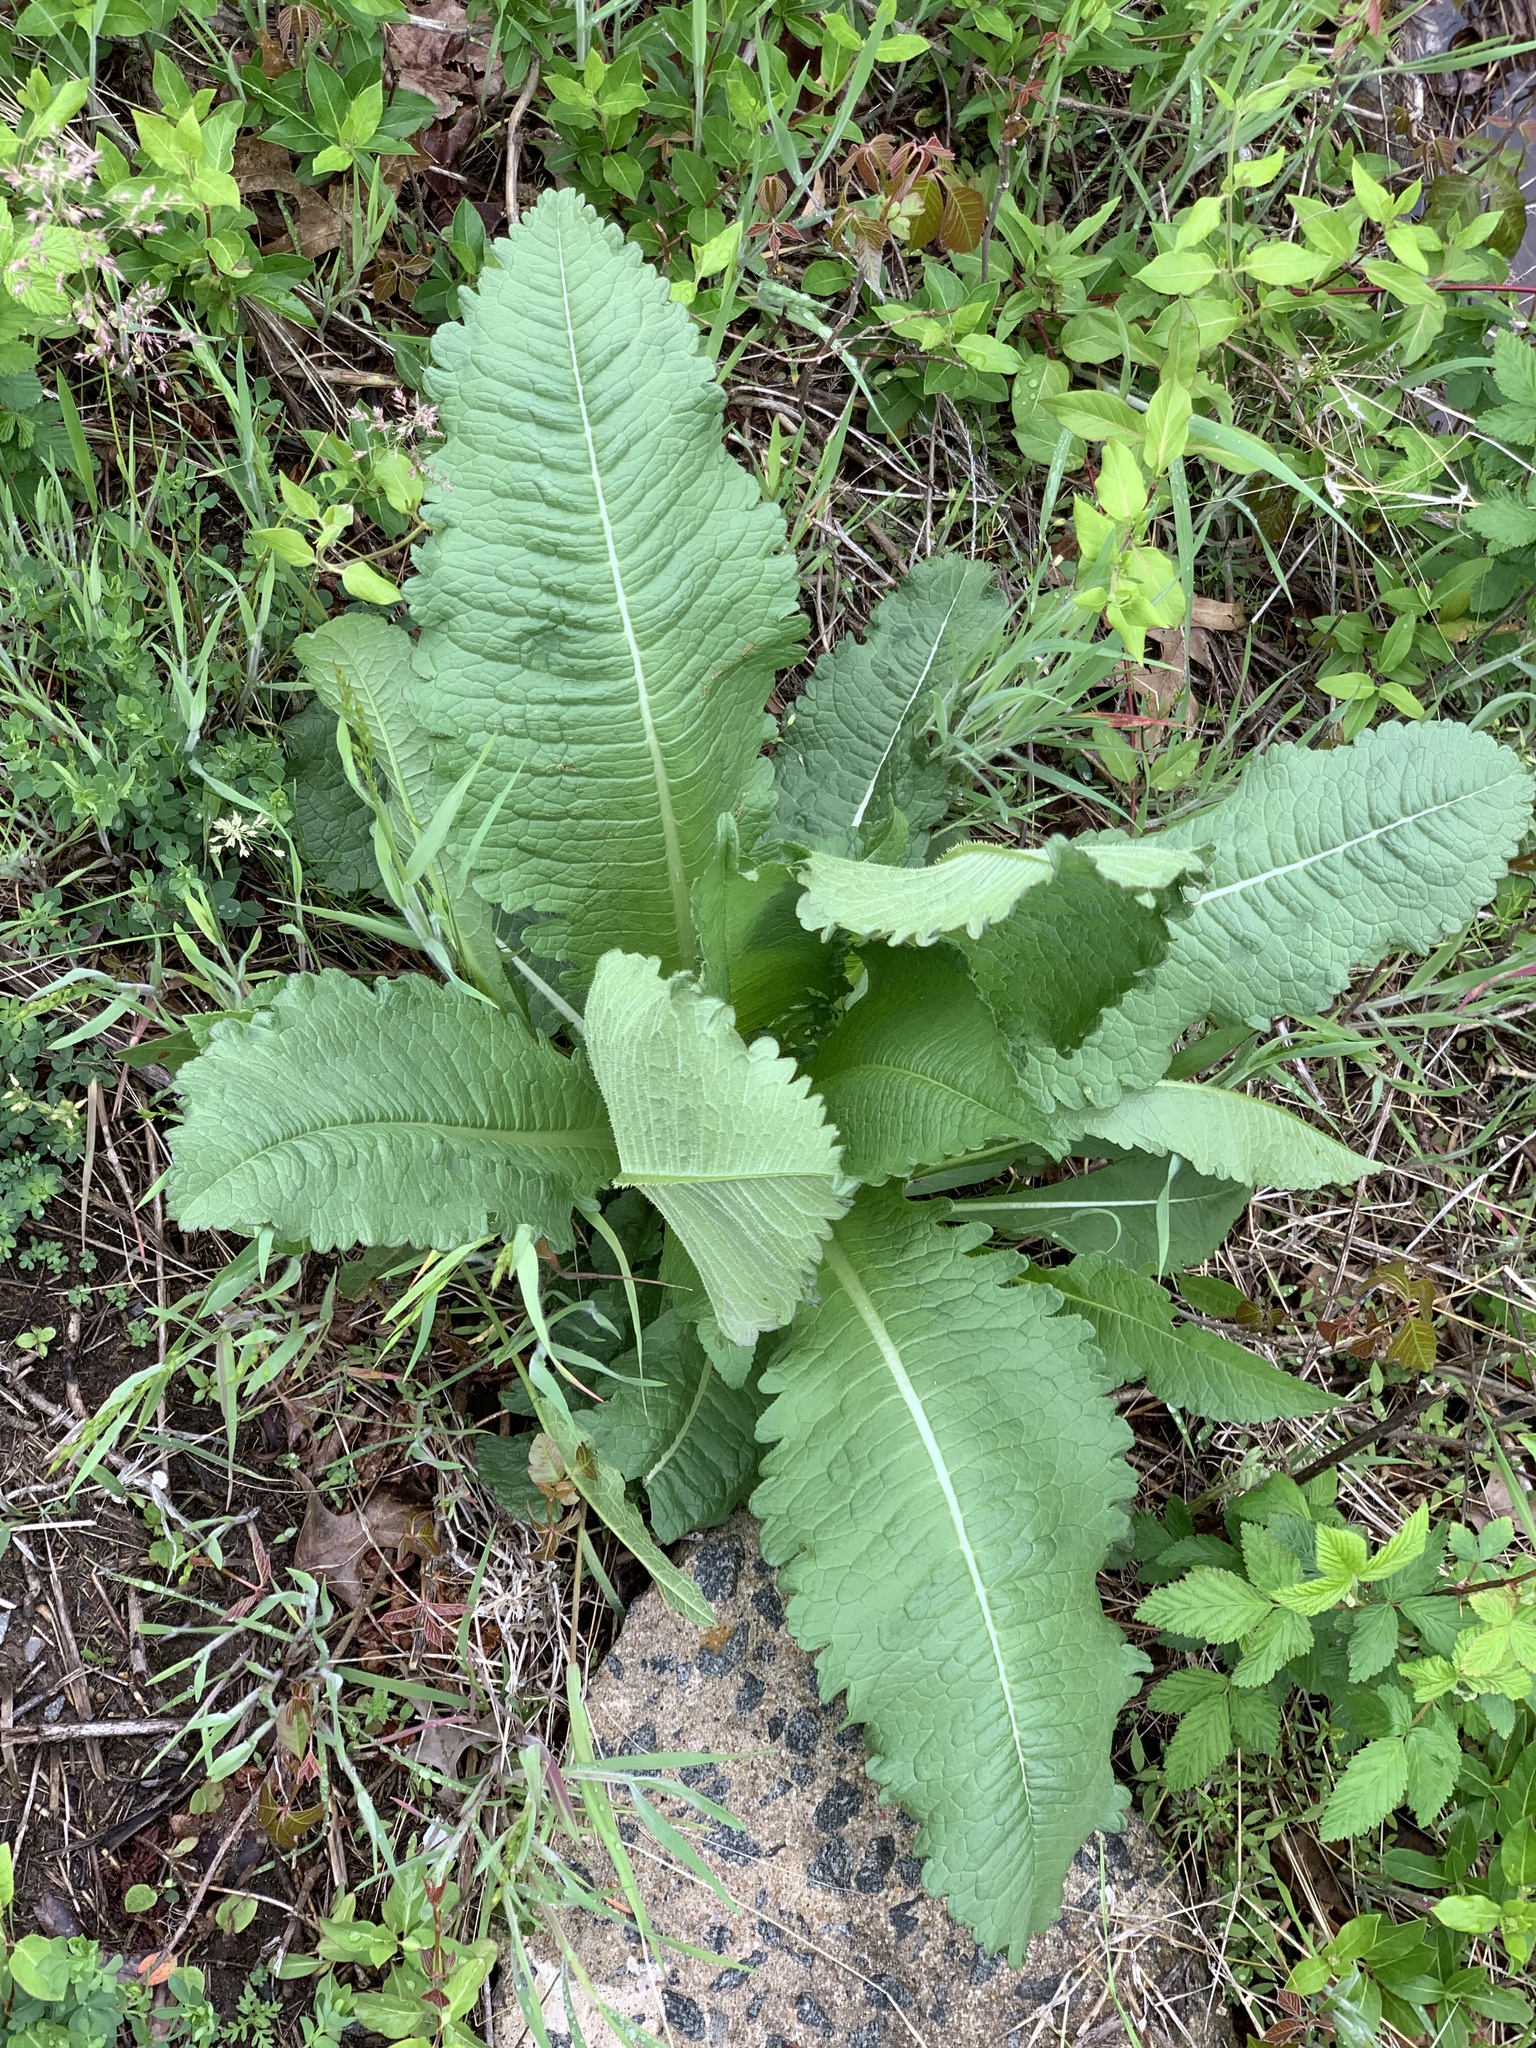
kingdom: Plantae
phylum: Tracheophyta
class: Magnoliopsida
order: Dipsacales
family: Caprifoliaceae
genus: Dipsacus
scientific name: Dipsacus laciniatus
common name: Cut-leaved teasel
